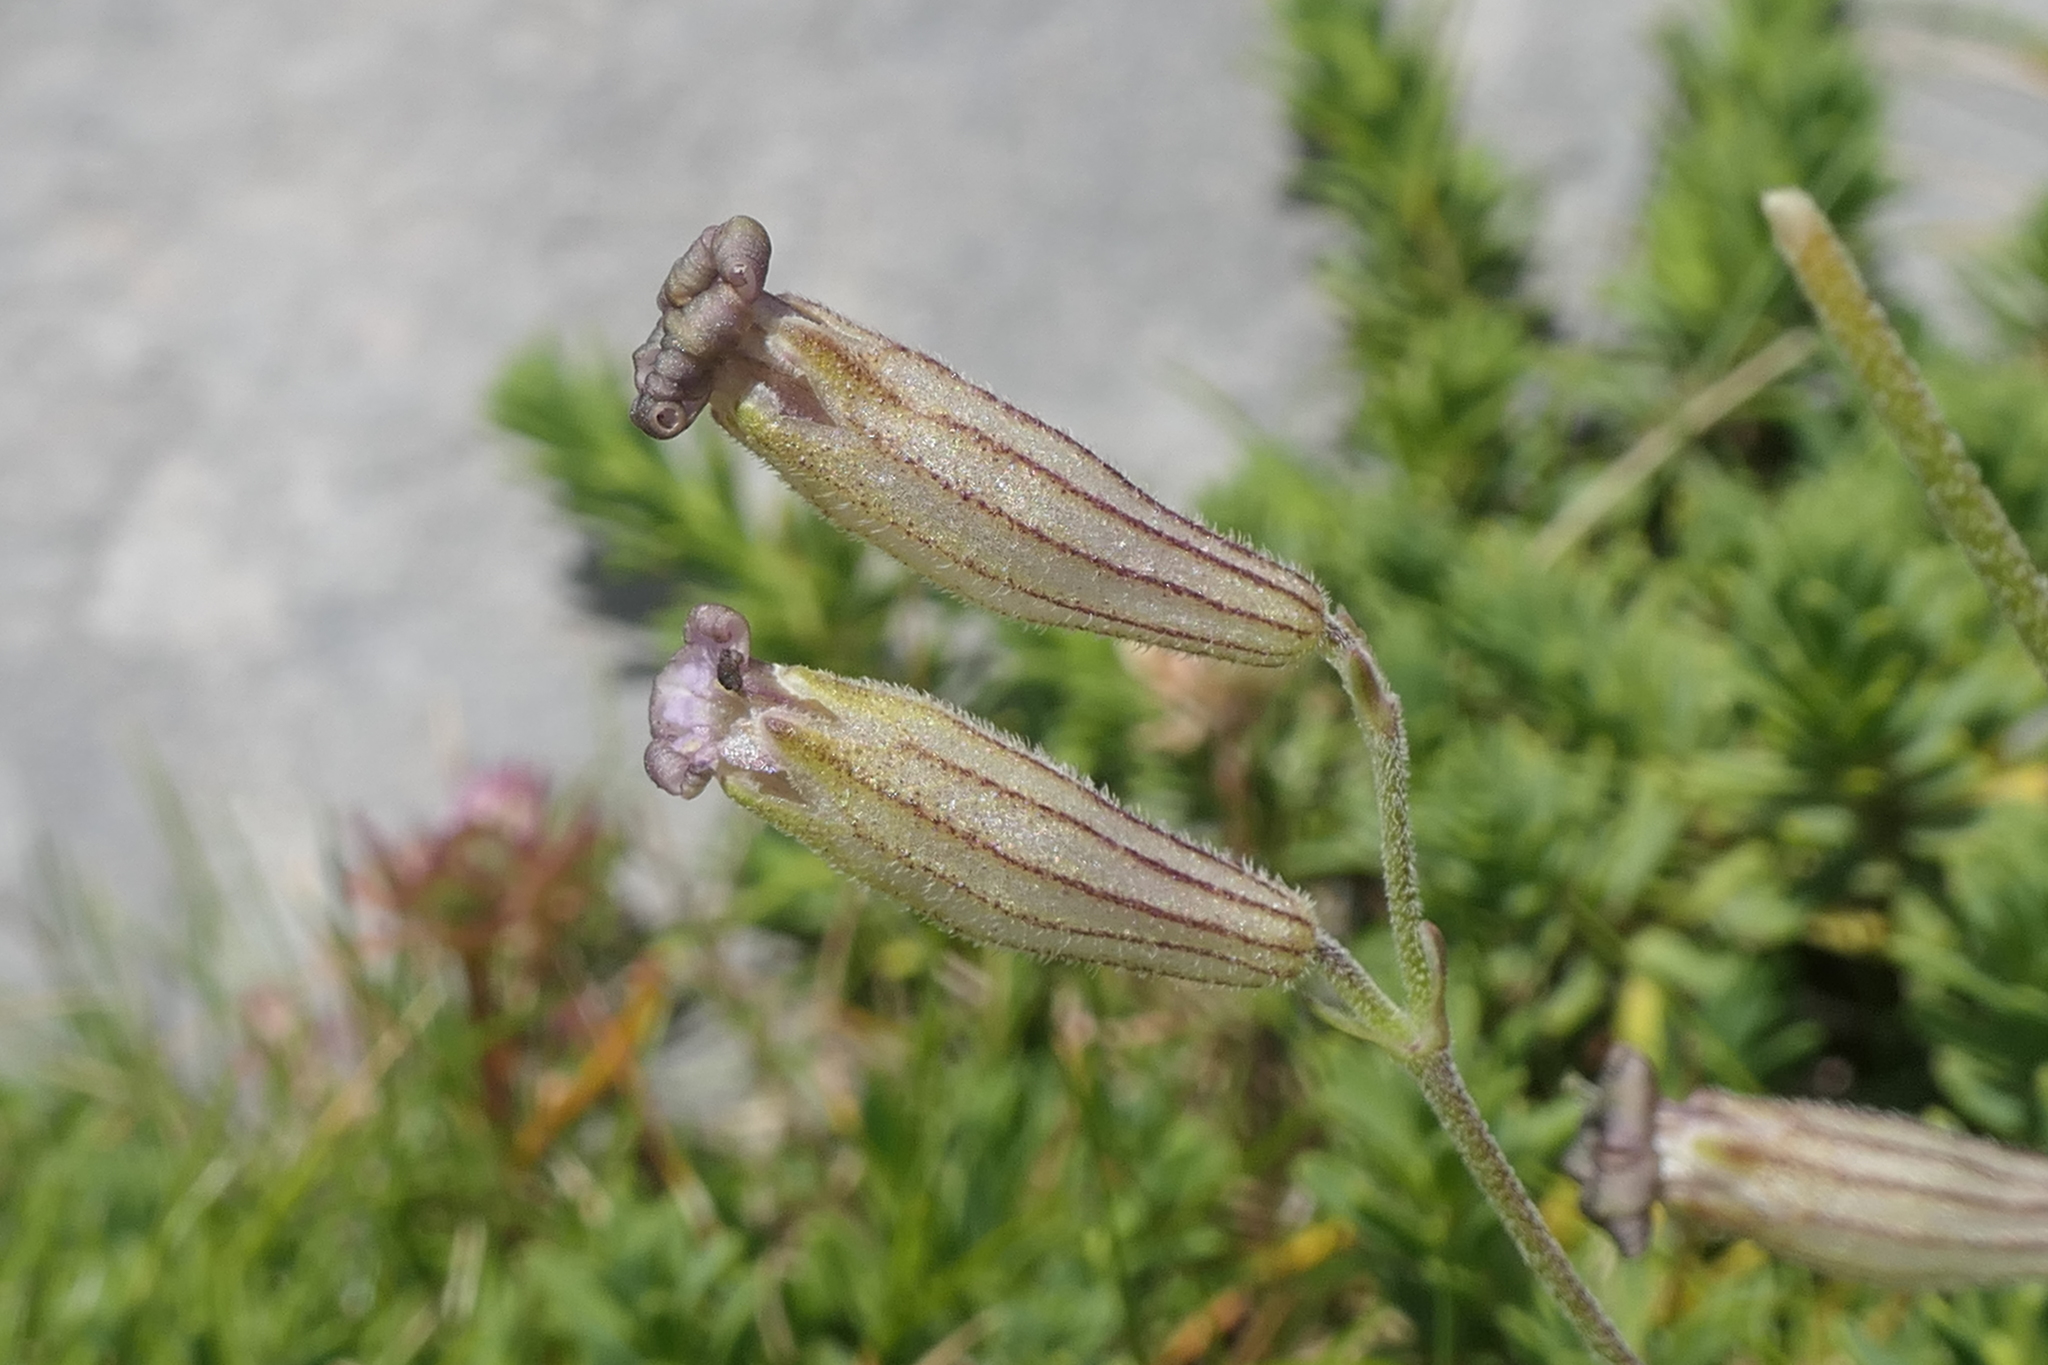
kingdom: Plantae
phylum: Tracheophyta
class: Magnoliopsida
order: Caryophyllales
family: Caryophyllaceae
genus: Silene
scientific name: Silene ciliata
